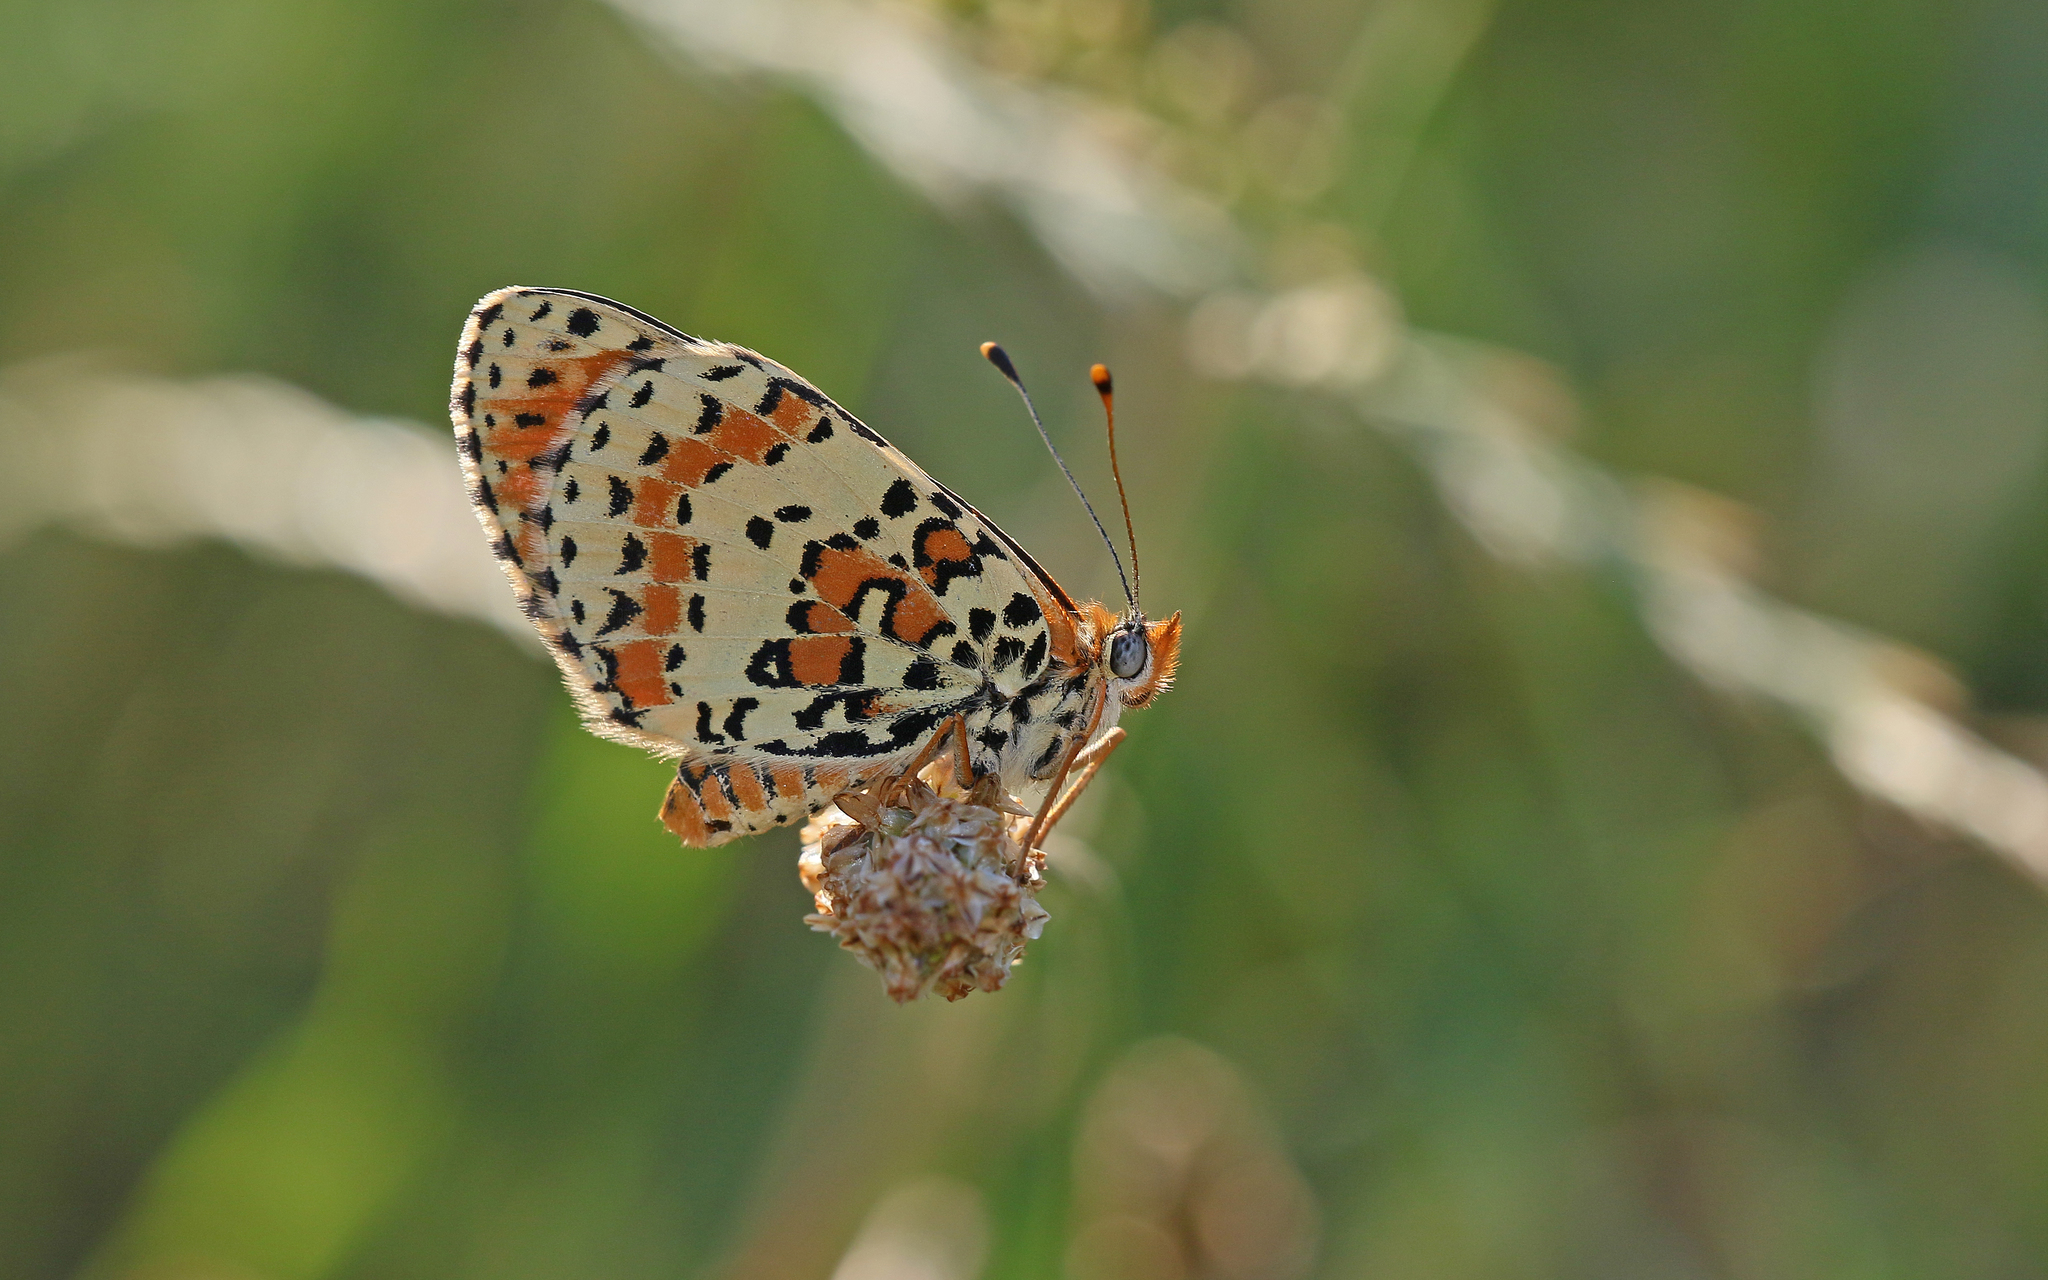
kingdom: Animalia
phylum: Arthropoda
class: Insecta
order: Lepidoptera
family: Nymphalidae
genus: Melitaea
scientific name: Melitaea didyma
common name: Spotted fritillary
